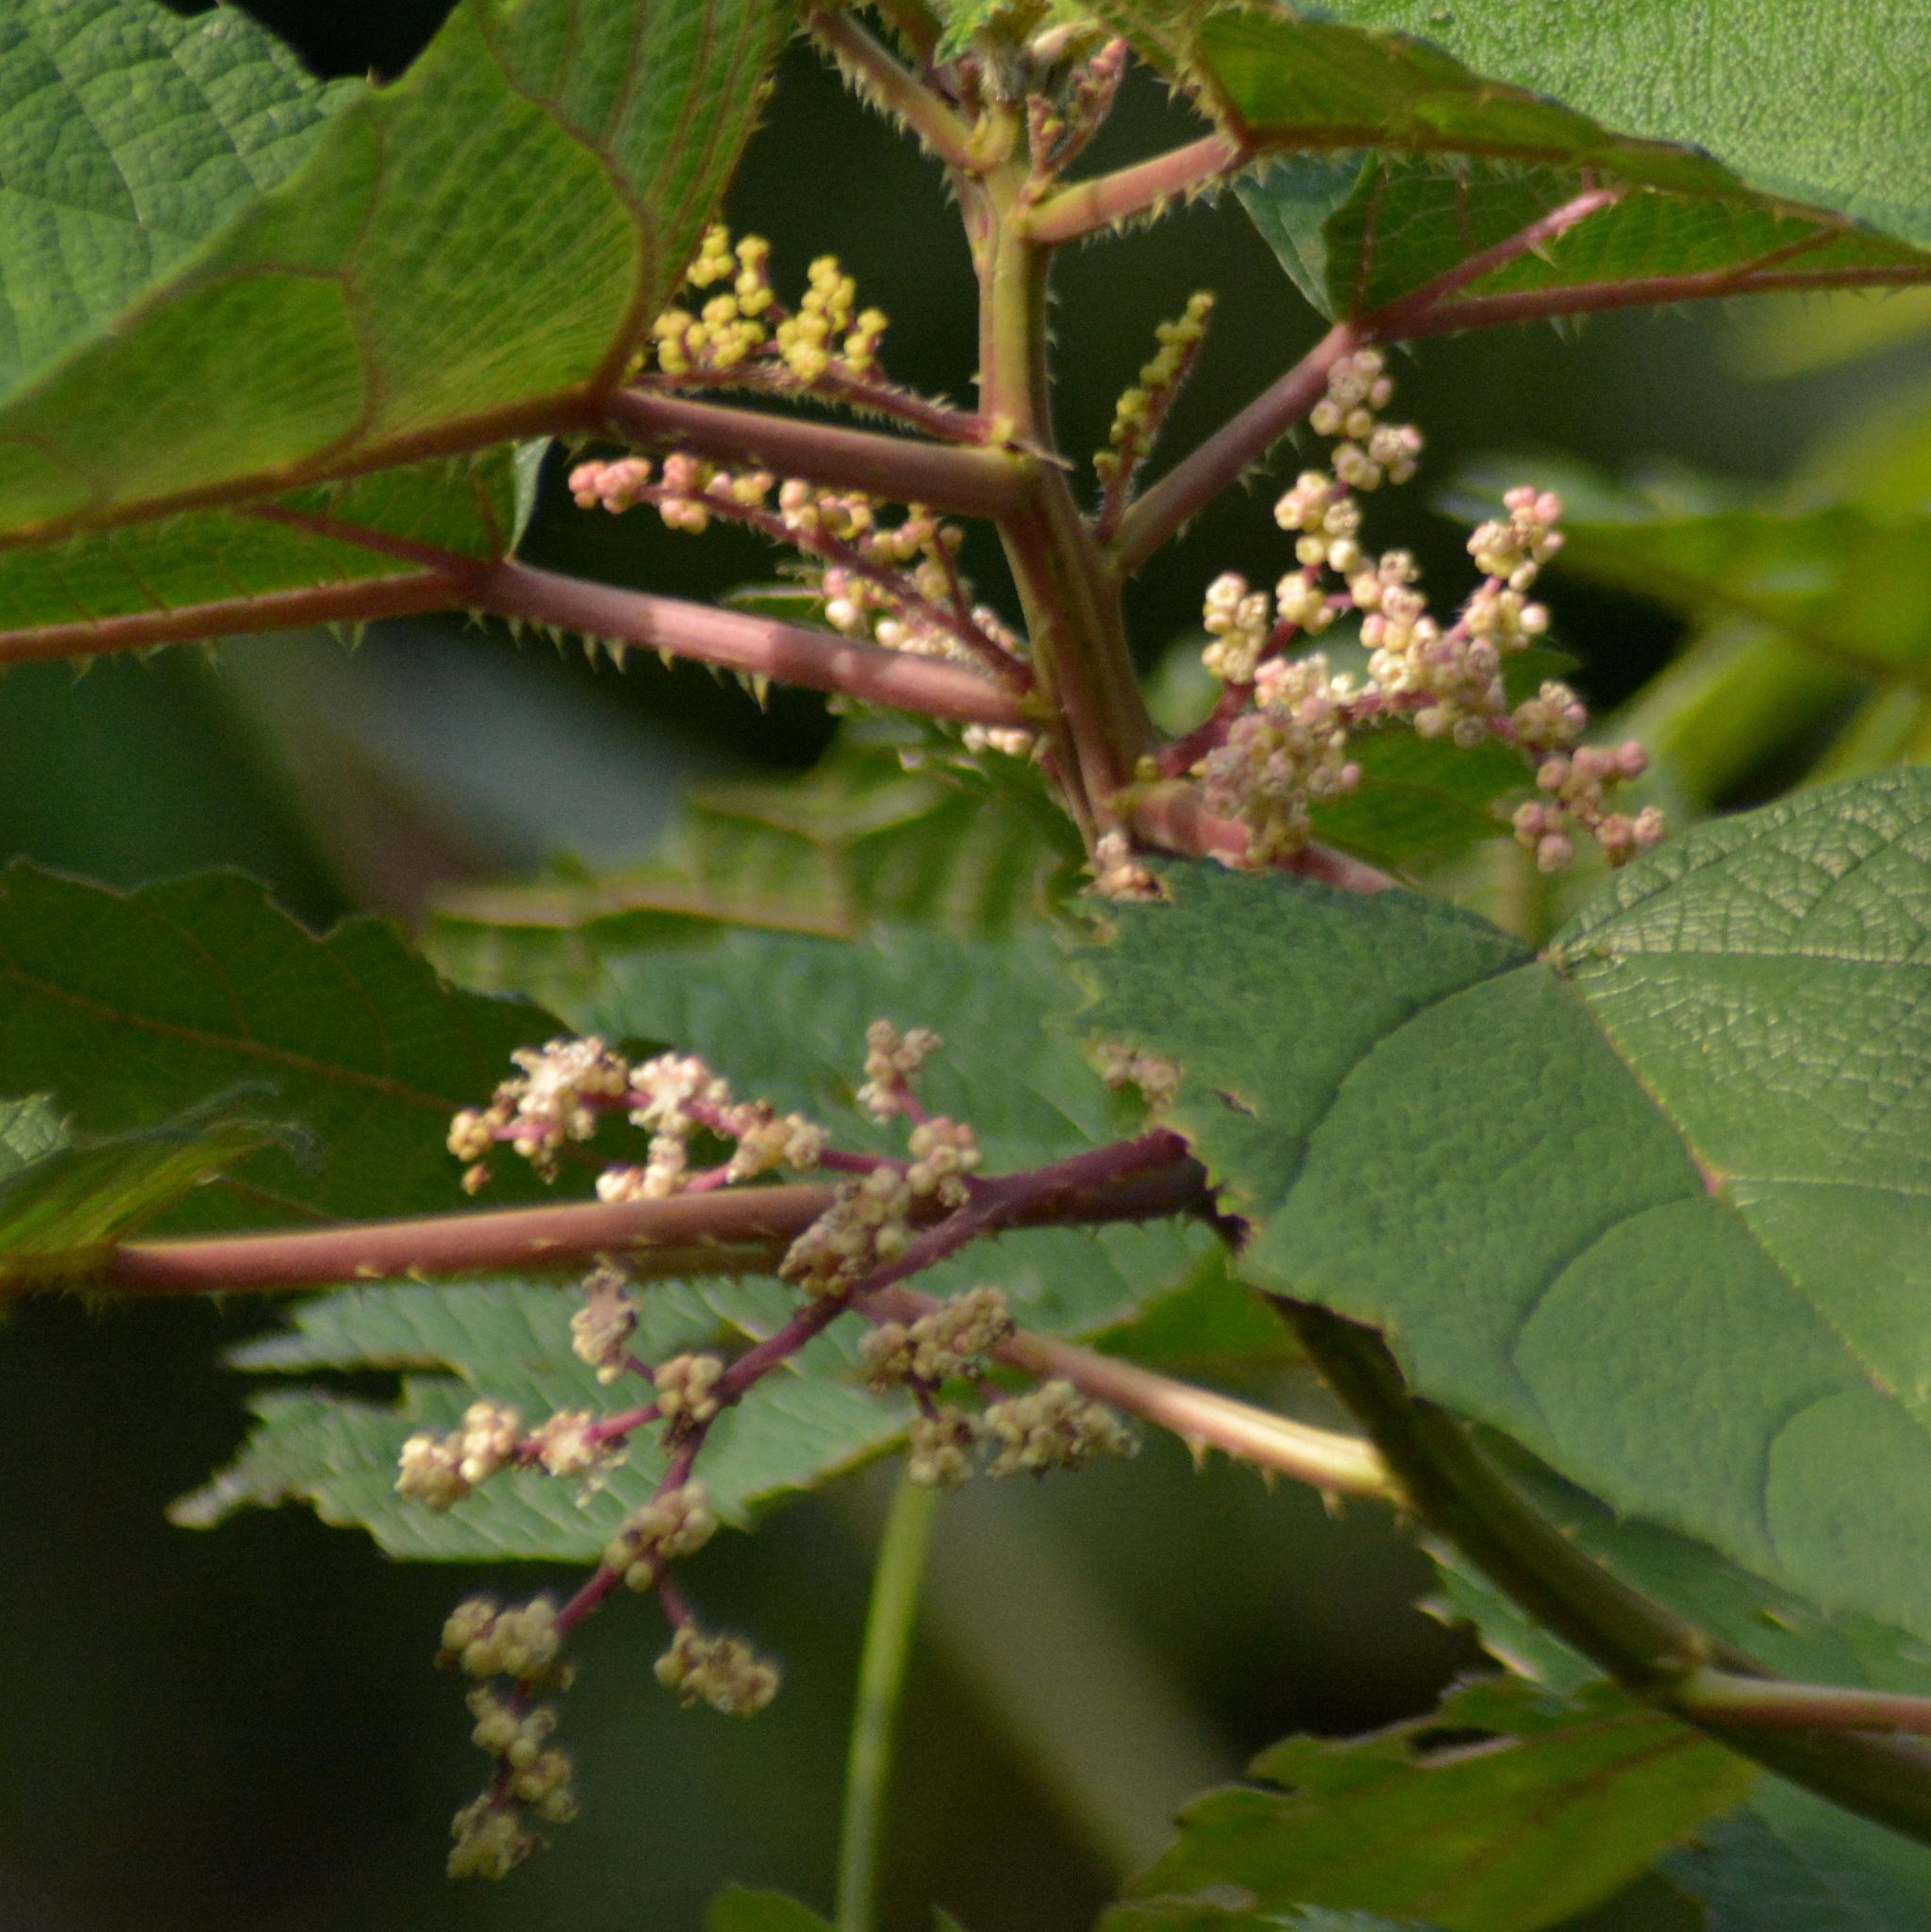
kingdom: Plantae
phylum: Tracheophyta
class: Magnoliopsida
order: Rosales
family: Urticaceae
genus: Urera
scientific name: Urera baccifera
